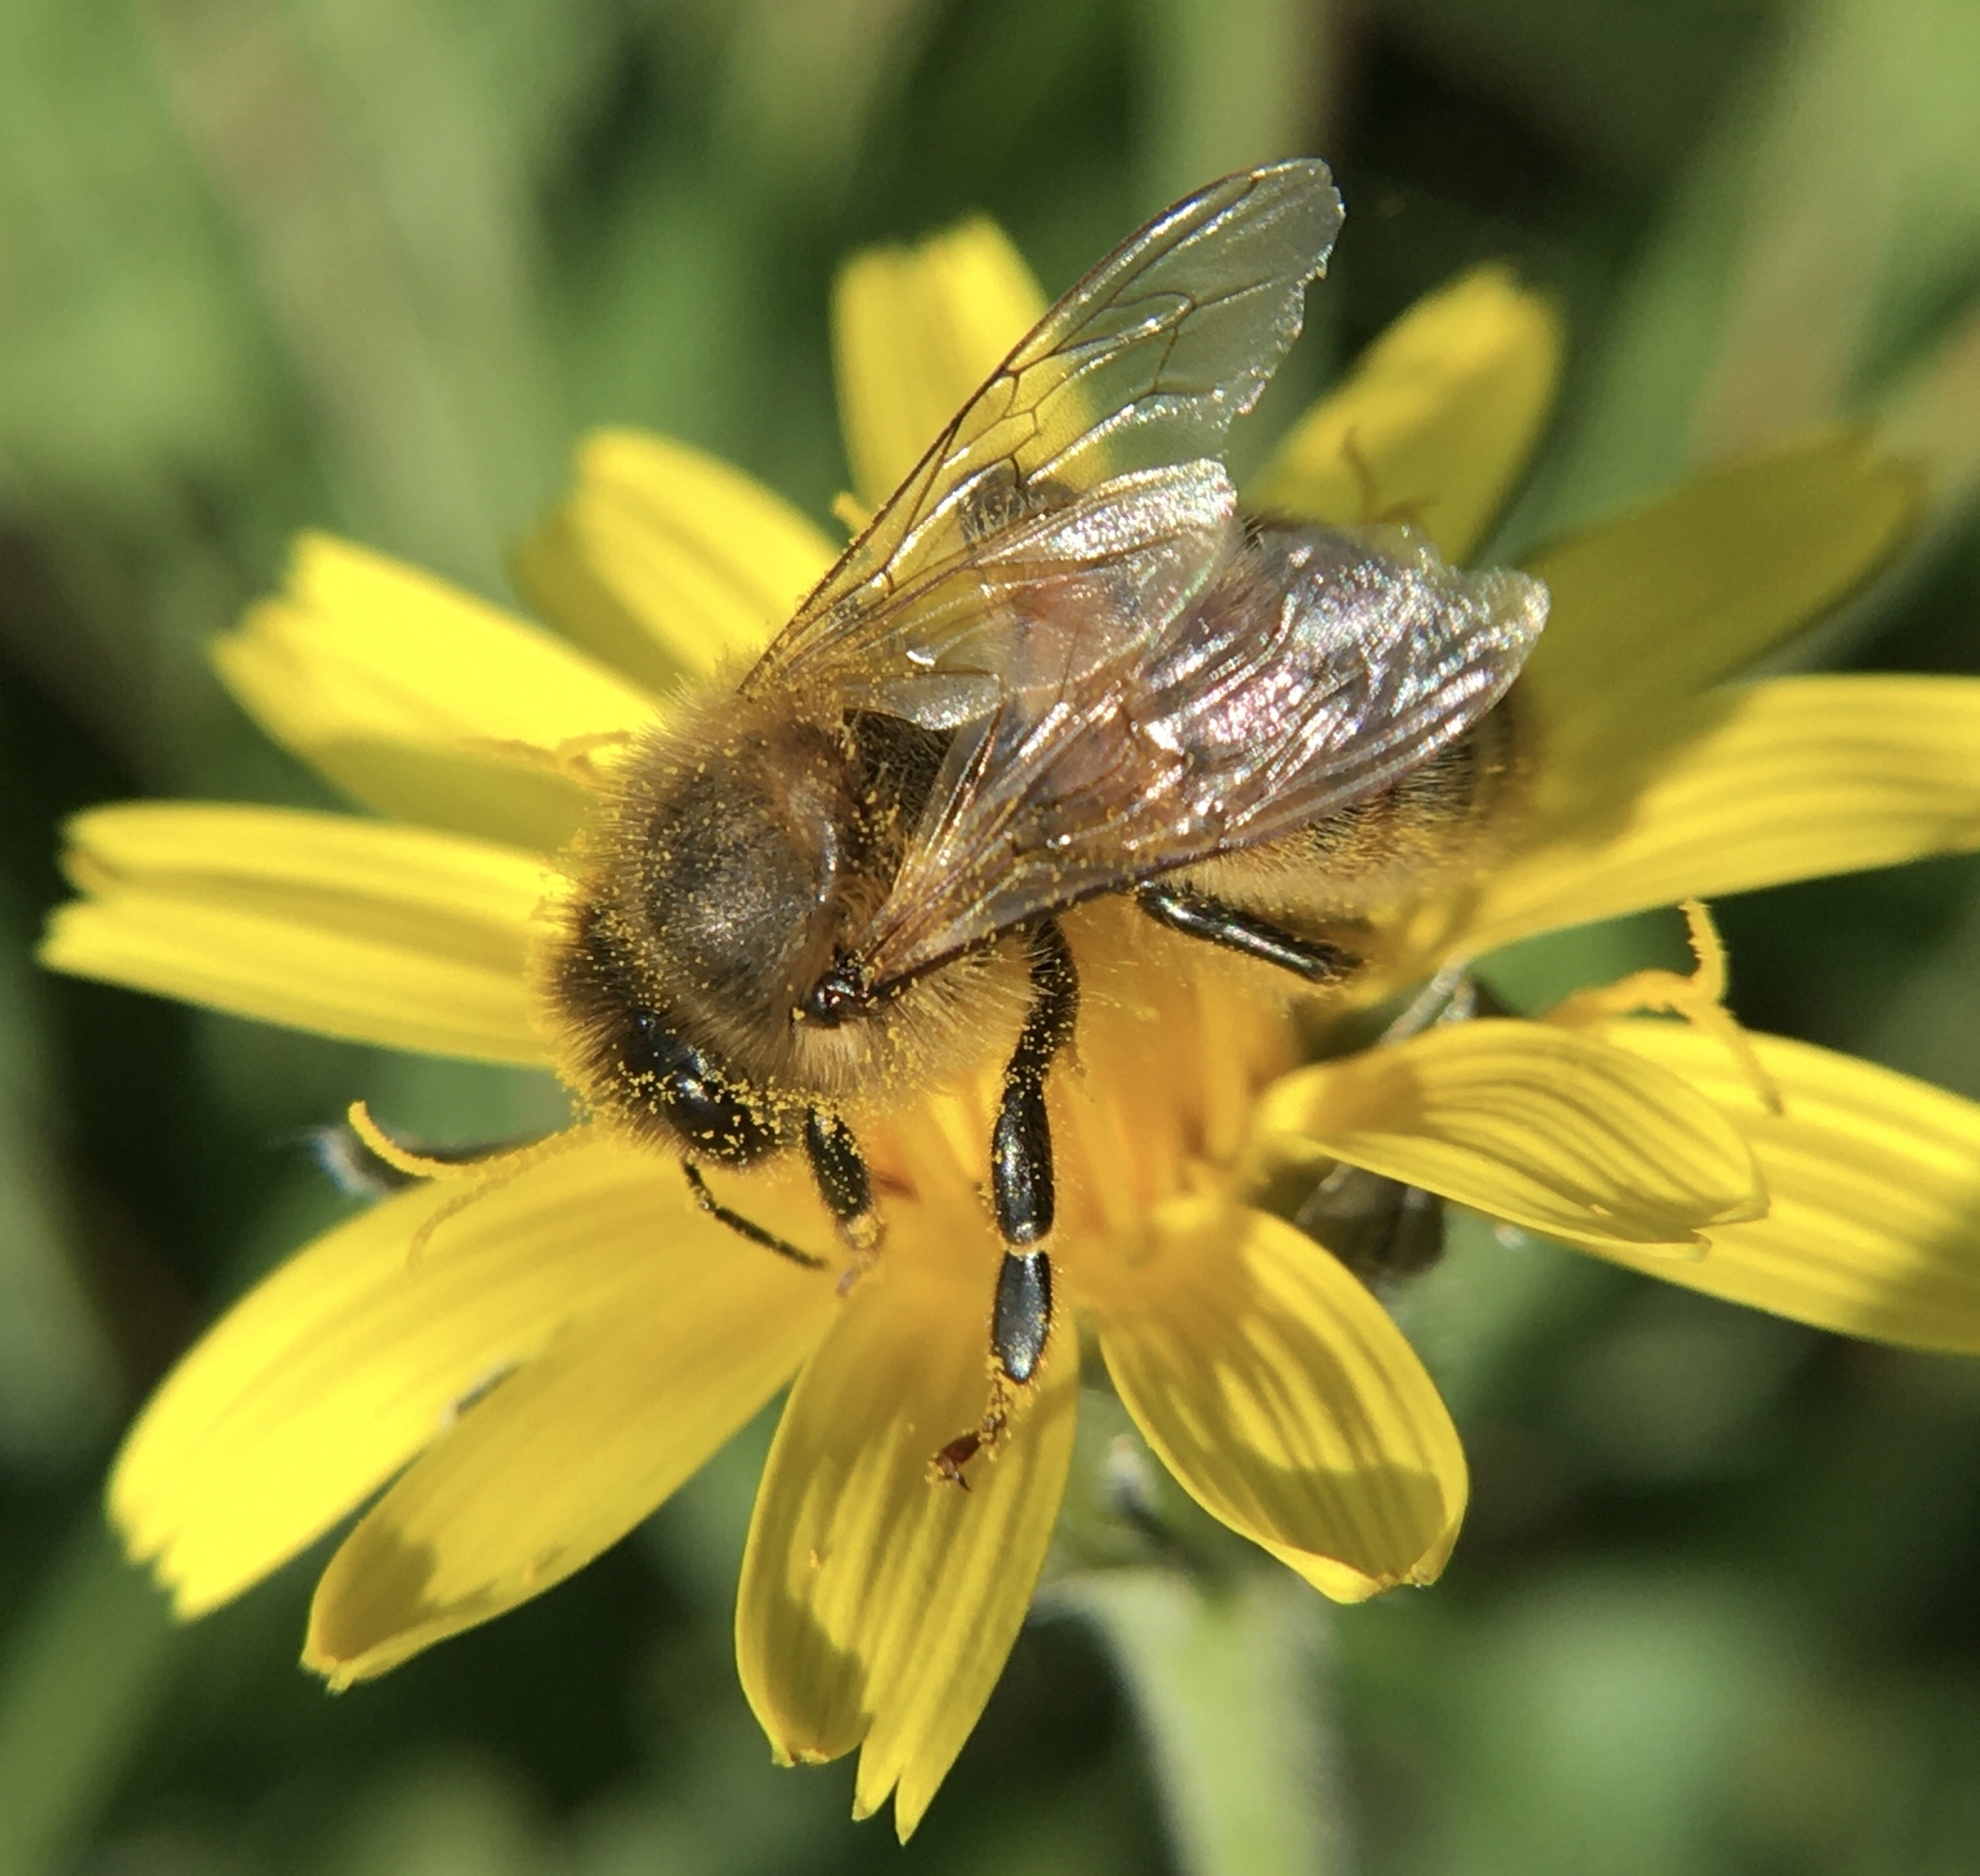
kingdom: Animalia
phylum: Arthropoda
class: Insecta
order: Hymenoptera
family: Apidae
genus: Apis
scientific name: Apis mellifera
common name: Honey bee
